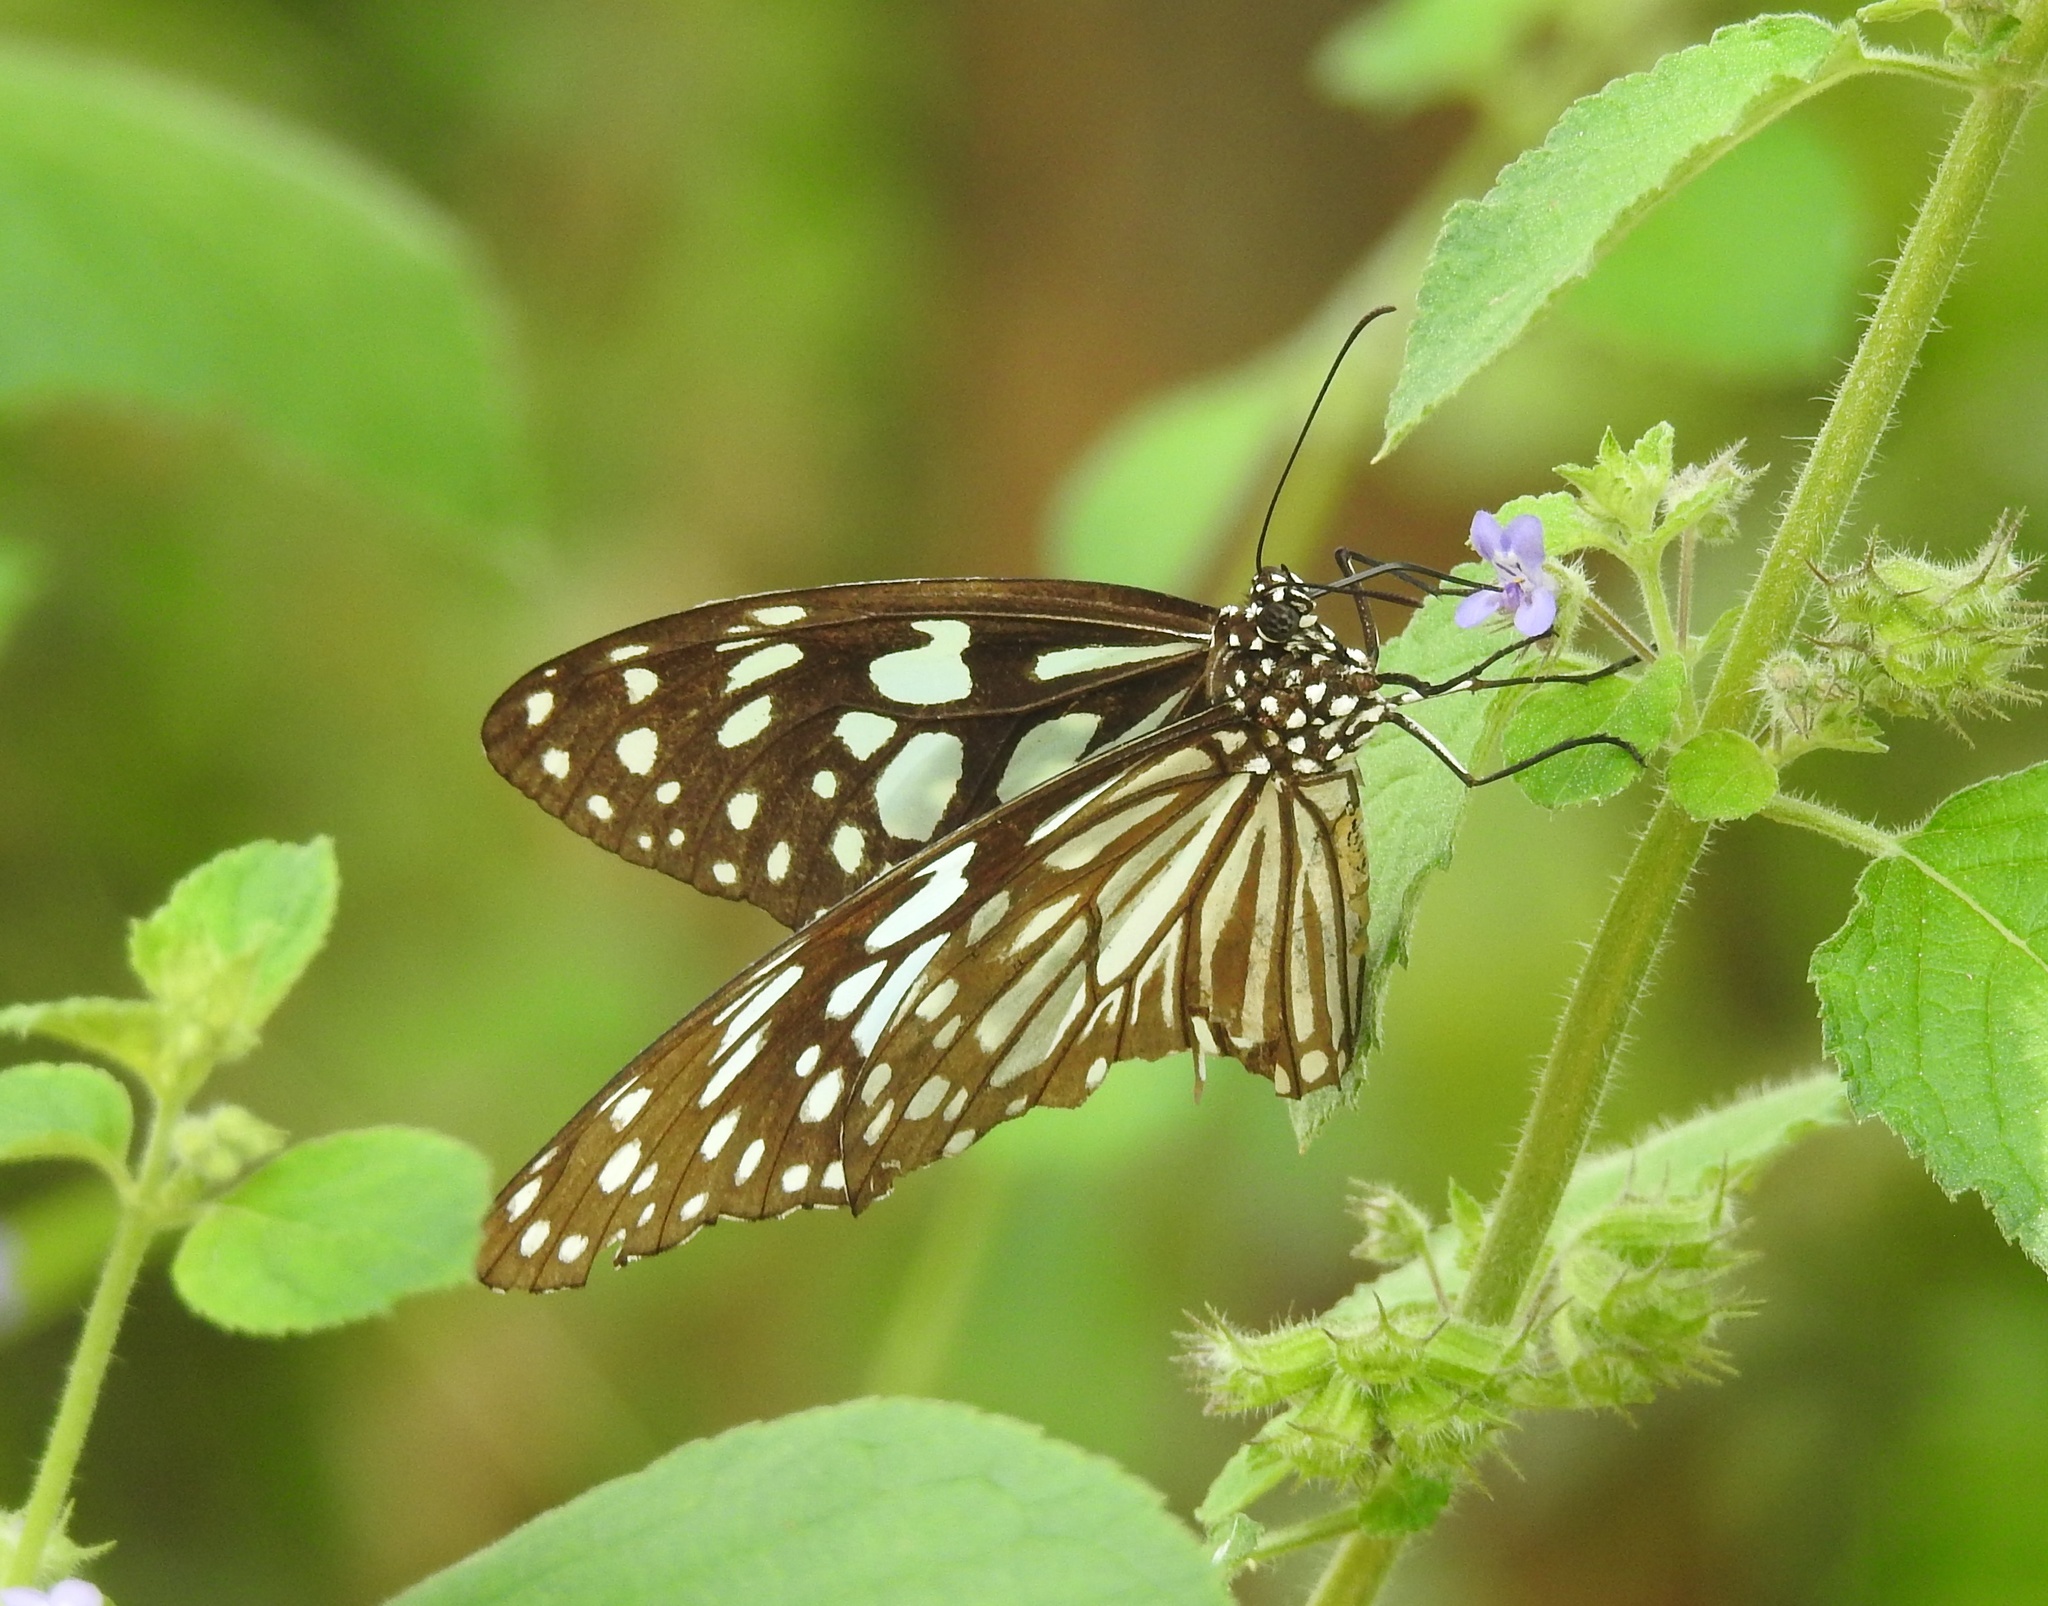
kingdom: Animalia
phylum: Arthropoda
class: Insecta
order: Lepidoptera
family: Nymphalidae
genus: Tirumala
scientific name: Tirumala limniace
